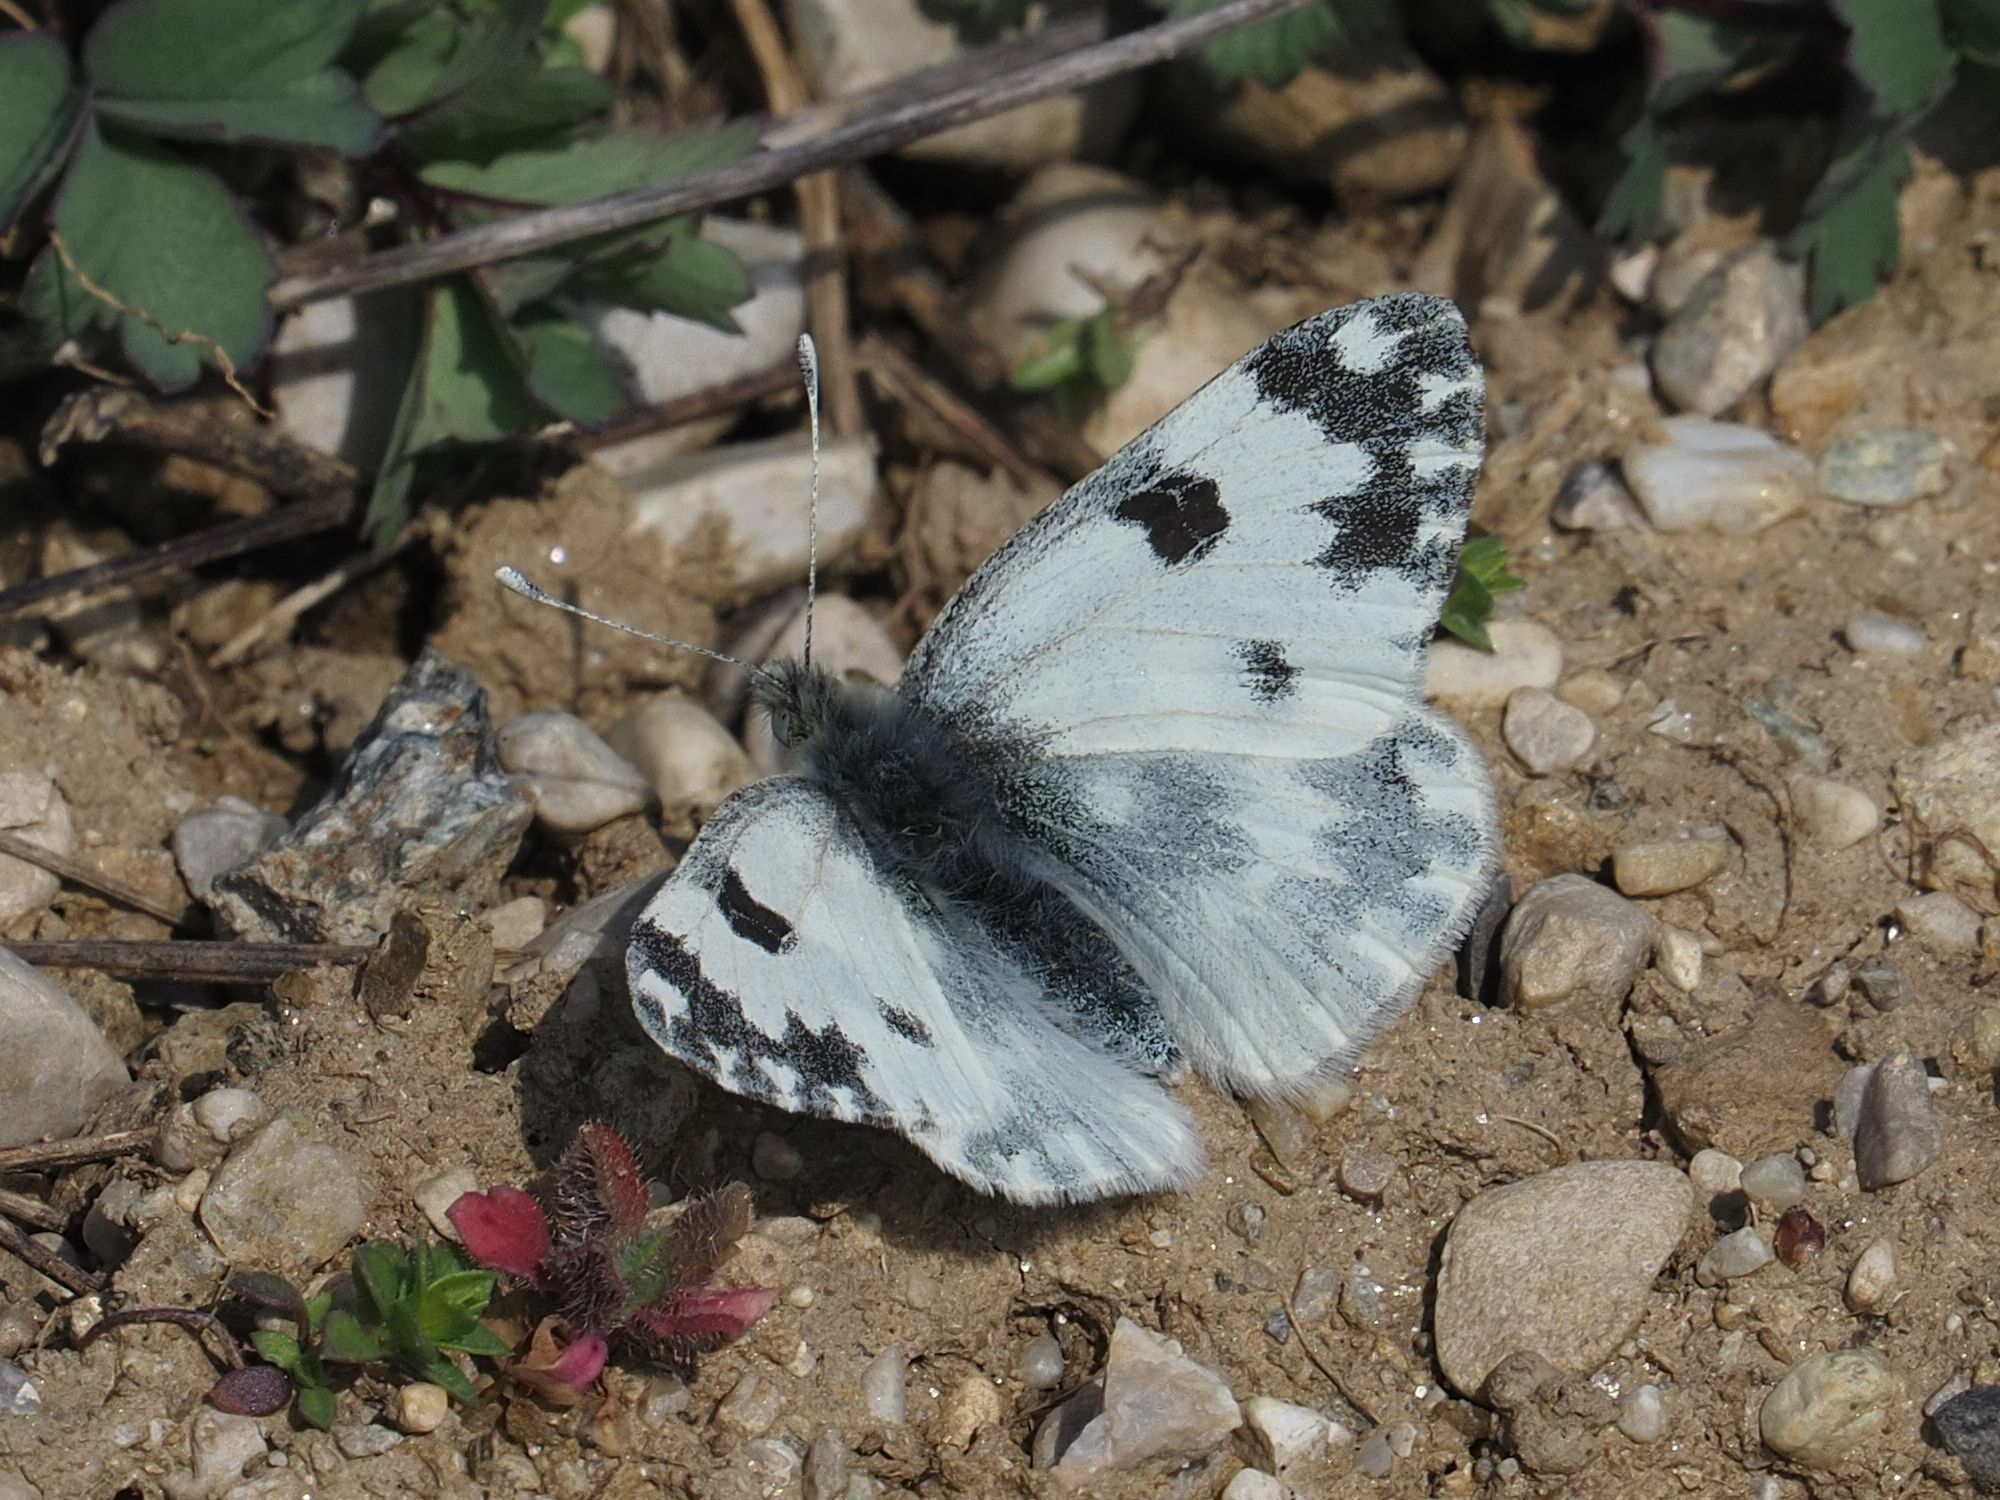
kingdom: Animalia
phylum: Arthropoda
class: Insecta
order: Lepidoptera
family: Pieridae
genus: Pontia
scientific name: Pontia edusa
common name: Eastern bath white
